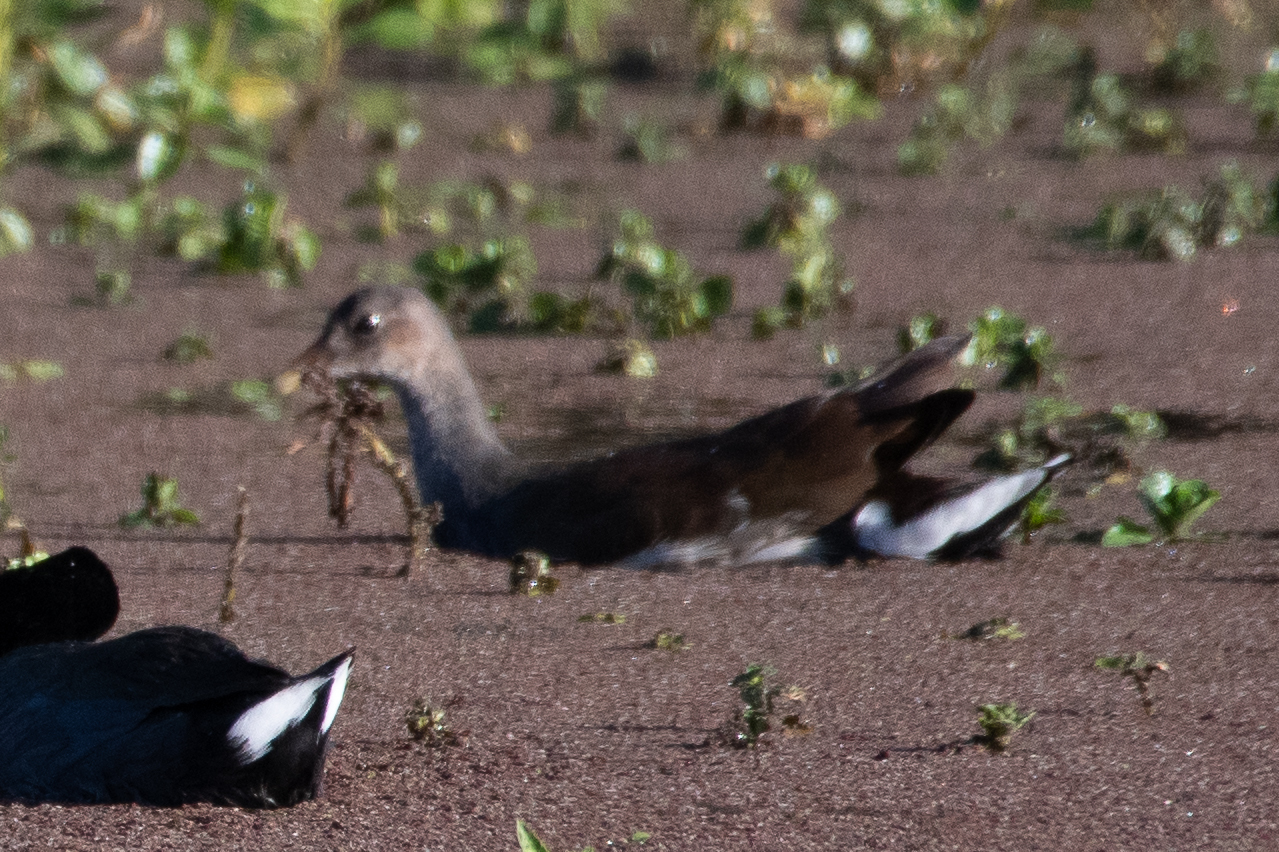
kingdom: Animalia
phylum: Chordata
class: Aves
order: Gruiformes
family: Rallidae
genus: Gallinula
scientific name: Gallinula chloropus
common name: Common moorhen
